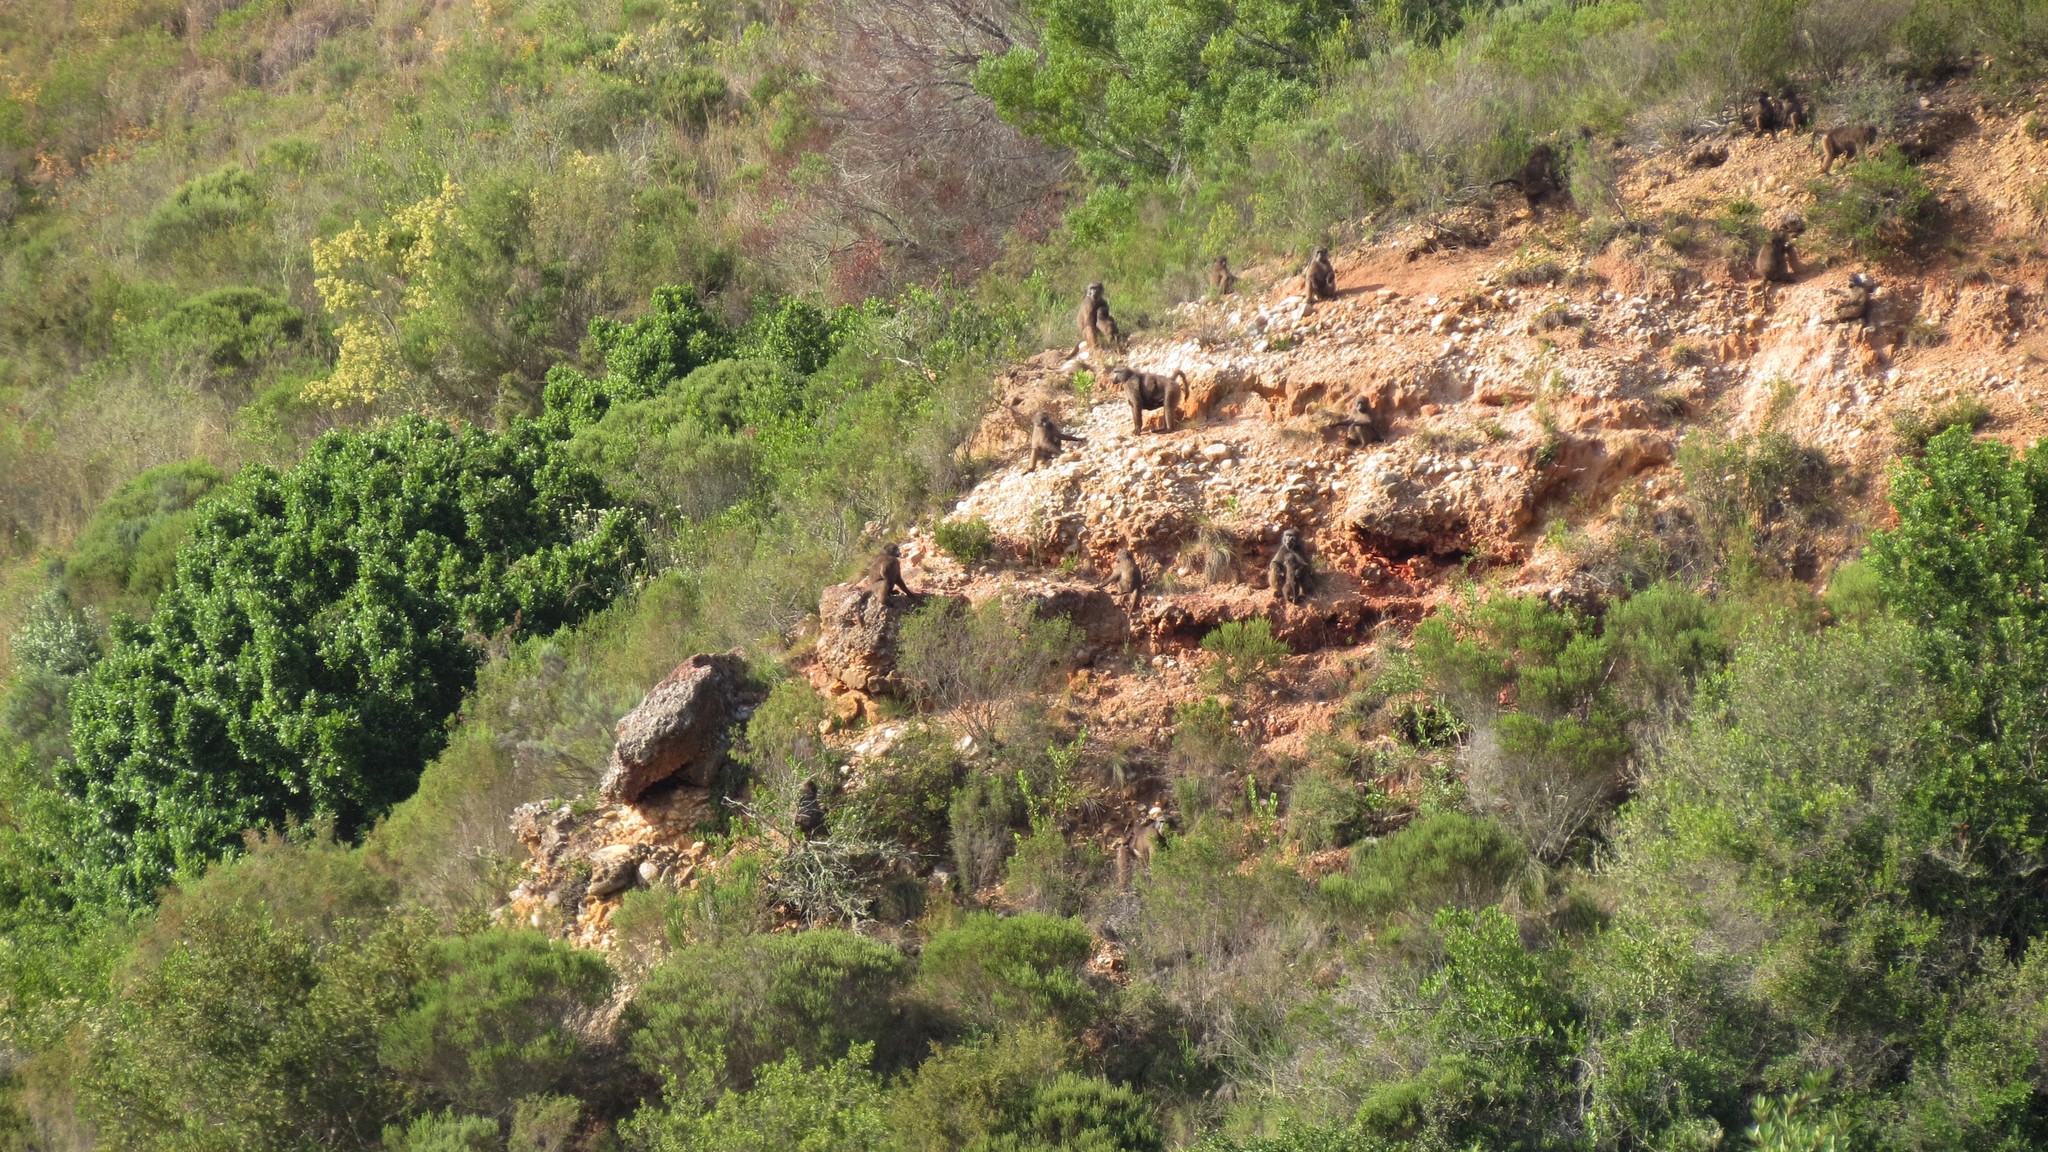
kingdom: Animalia
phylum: Chordata
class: Mammalia
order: Primates
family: Cercopithecidae
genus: Papio
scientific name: Papio ursinus
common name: Chacma baboon
